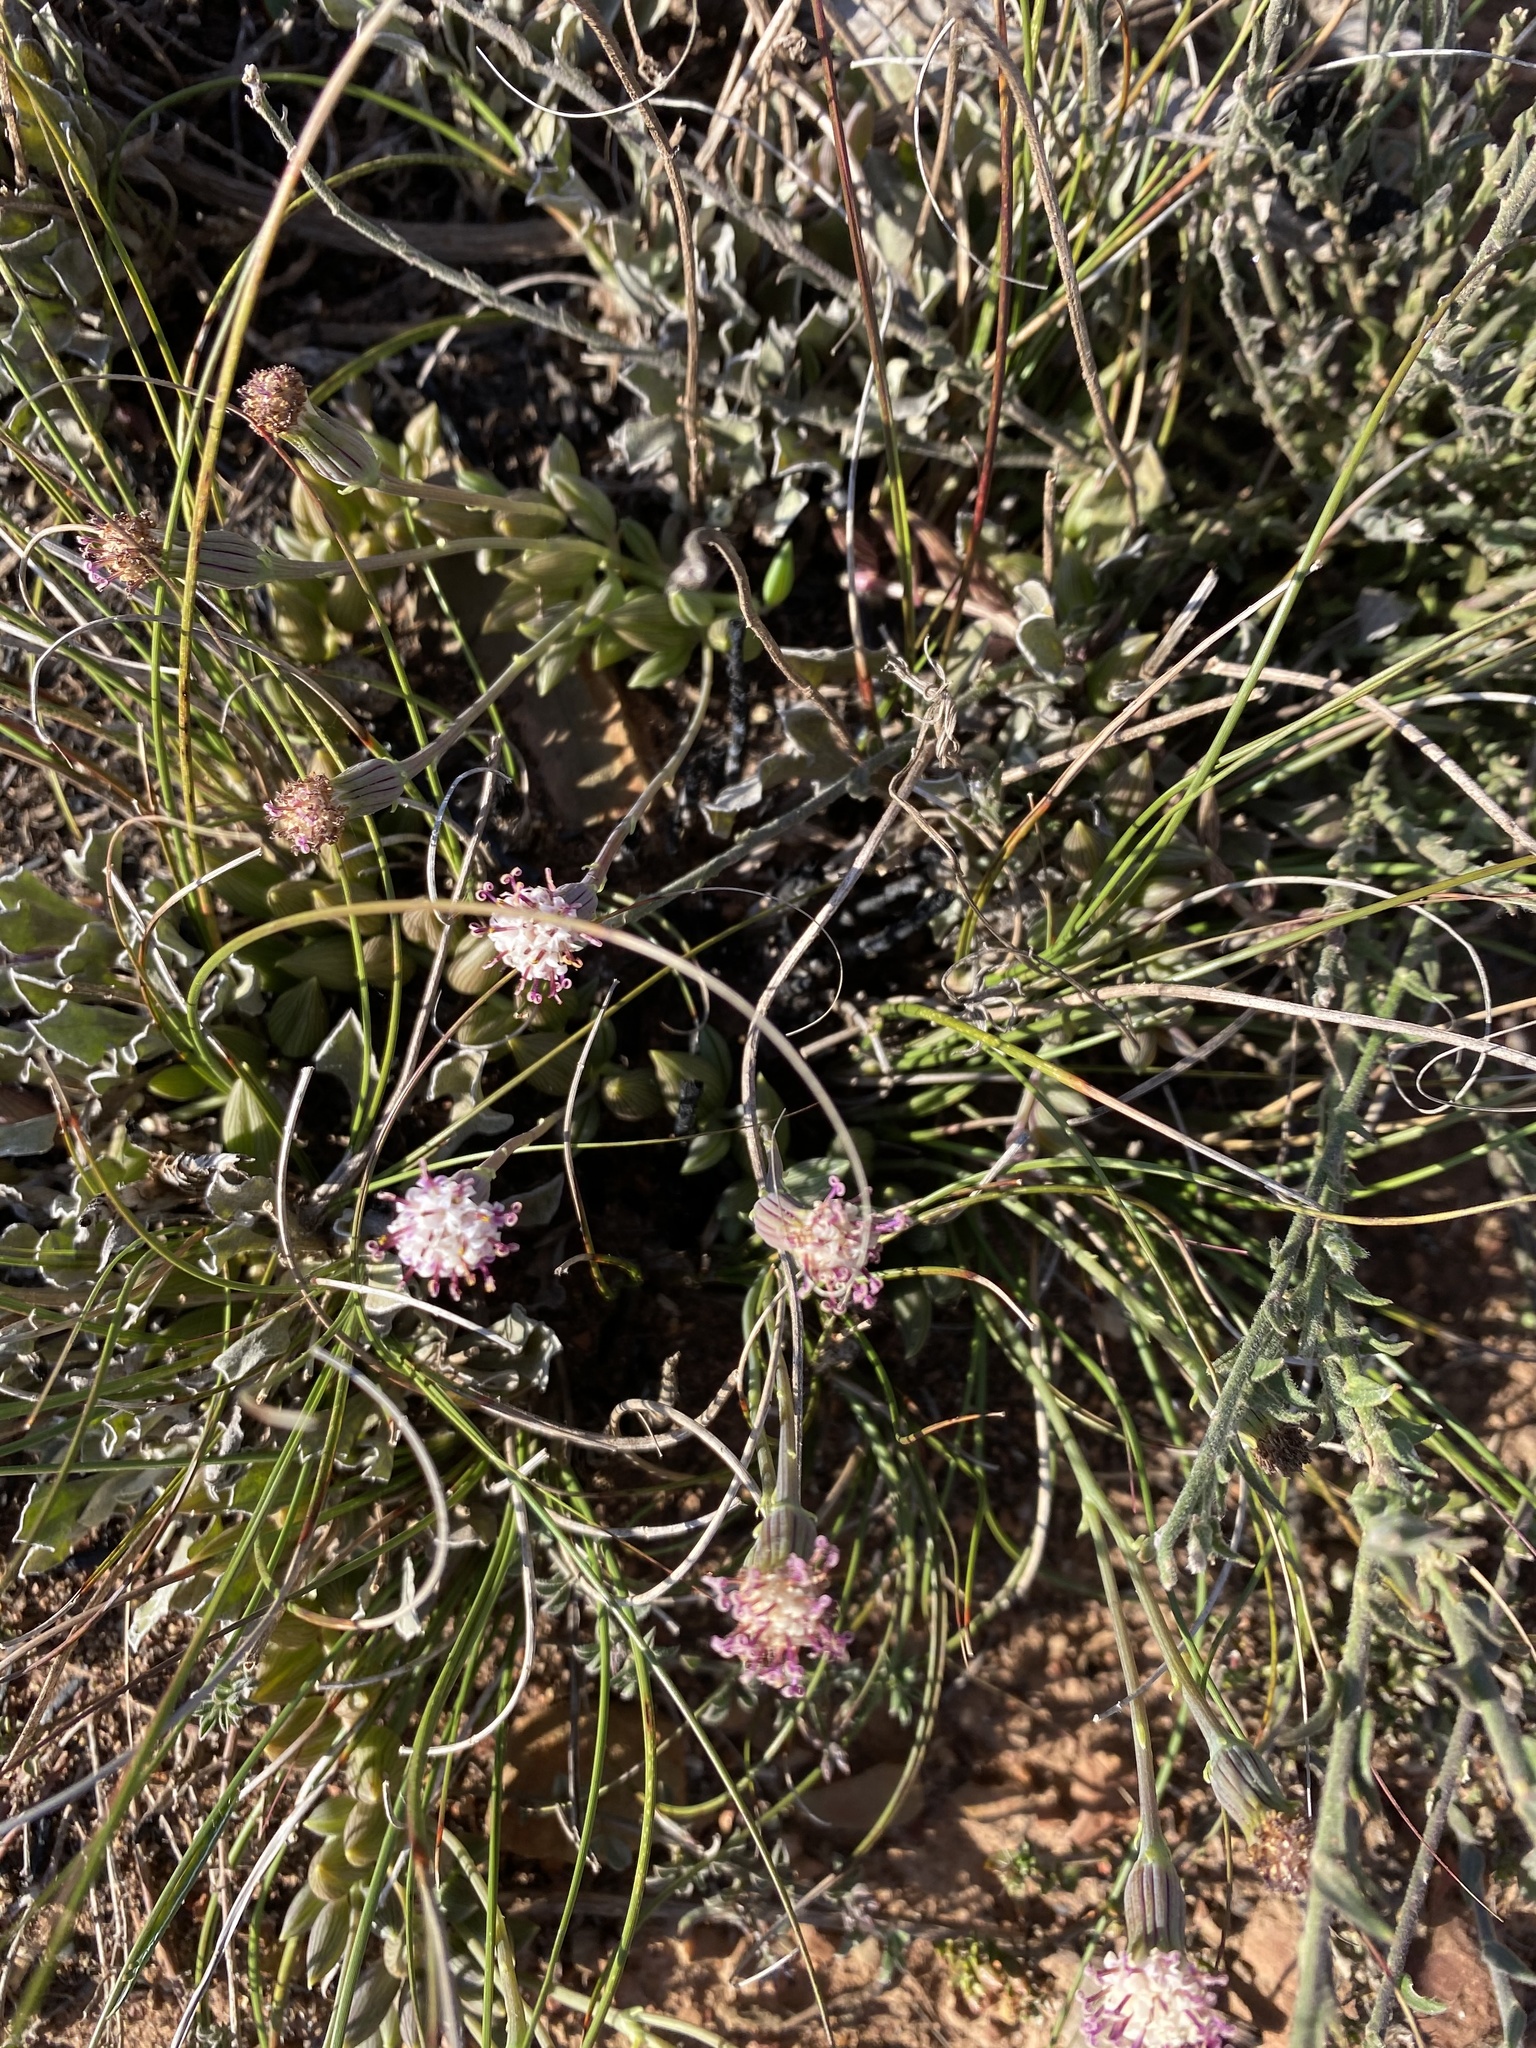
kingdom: Plantae
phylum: Tracheophyta
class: Magnoliopsida
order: Asterales
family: Asteraceae
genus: Curio
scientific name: Curio radicans
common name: Creeping-berry
